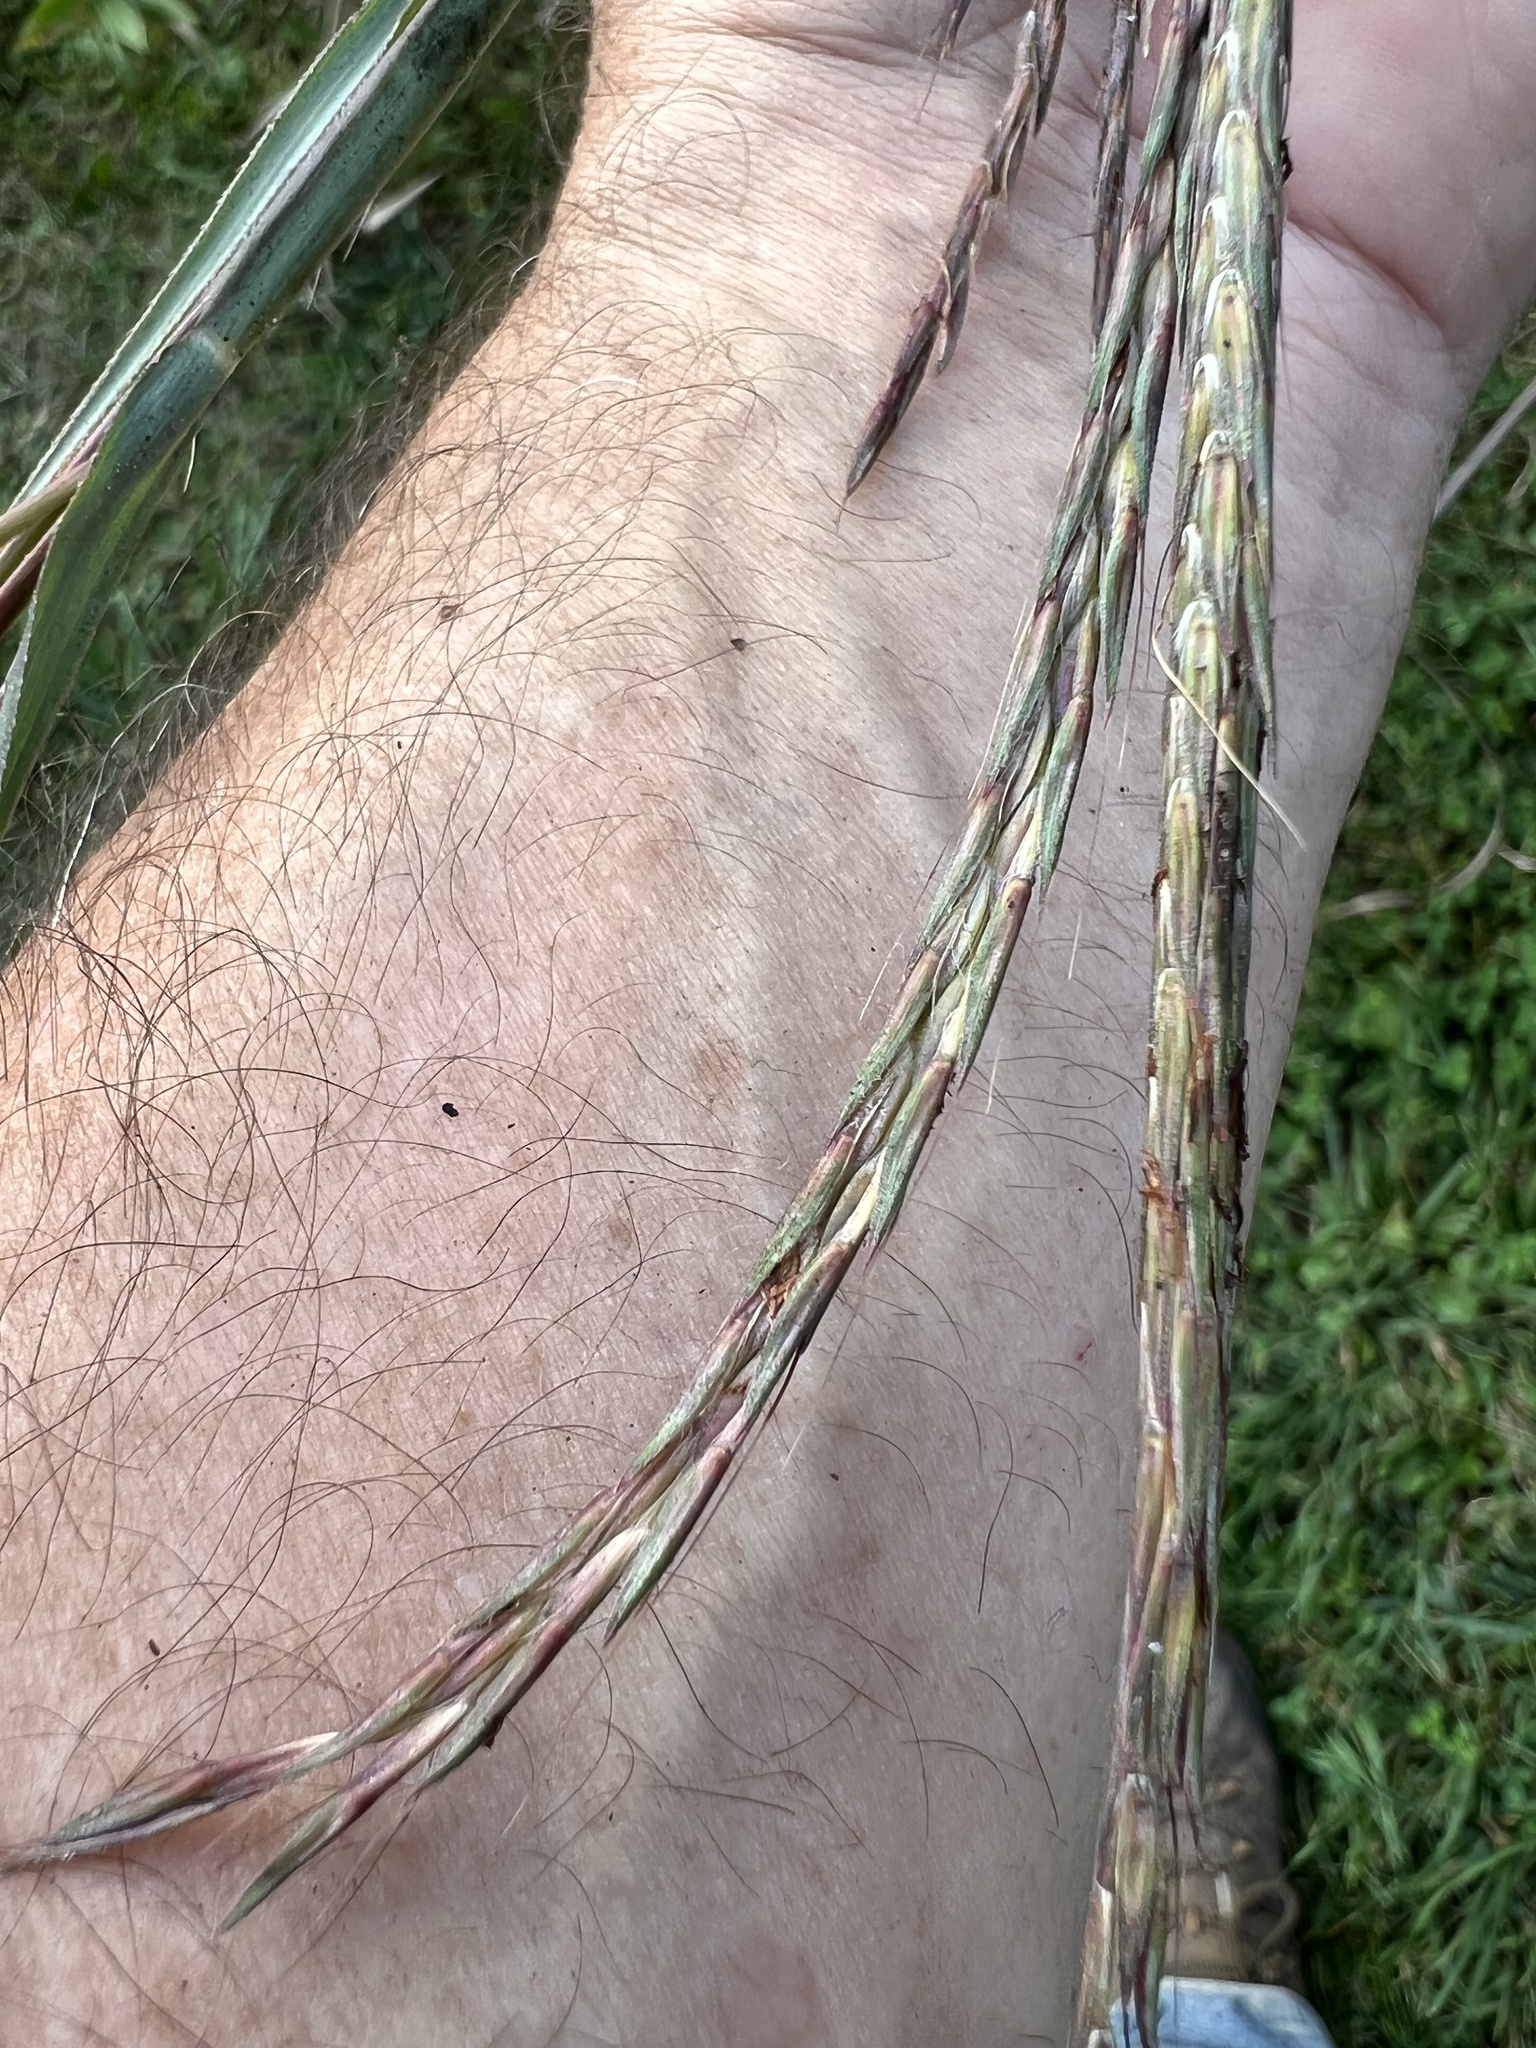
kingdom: Plantae
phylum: Tracheophyta
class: Liliopsida
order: Poales
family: Poaceae
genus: Andropogon
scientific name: Andropogon gerardi
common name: Big bluestem
